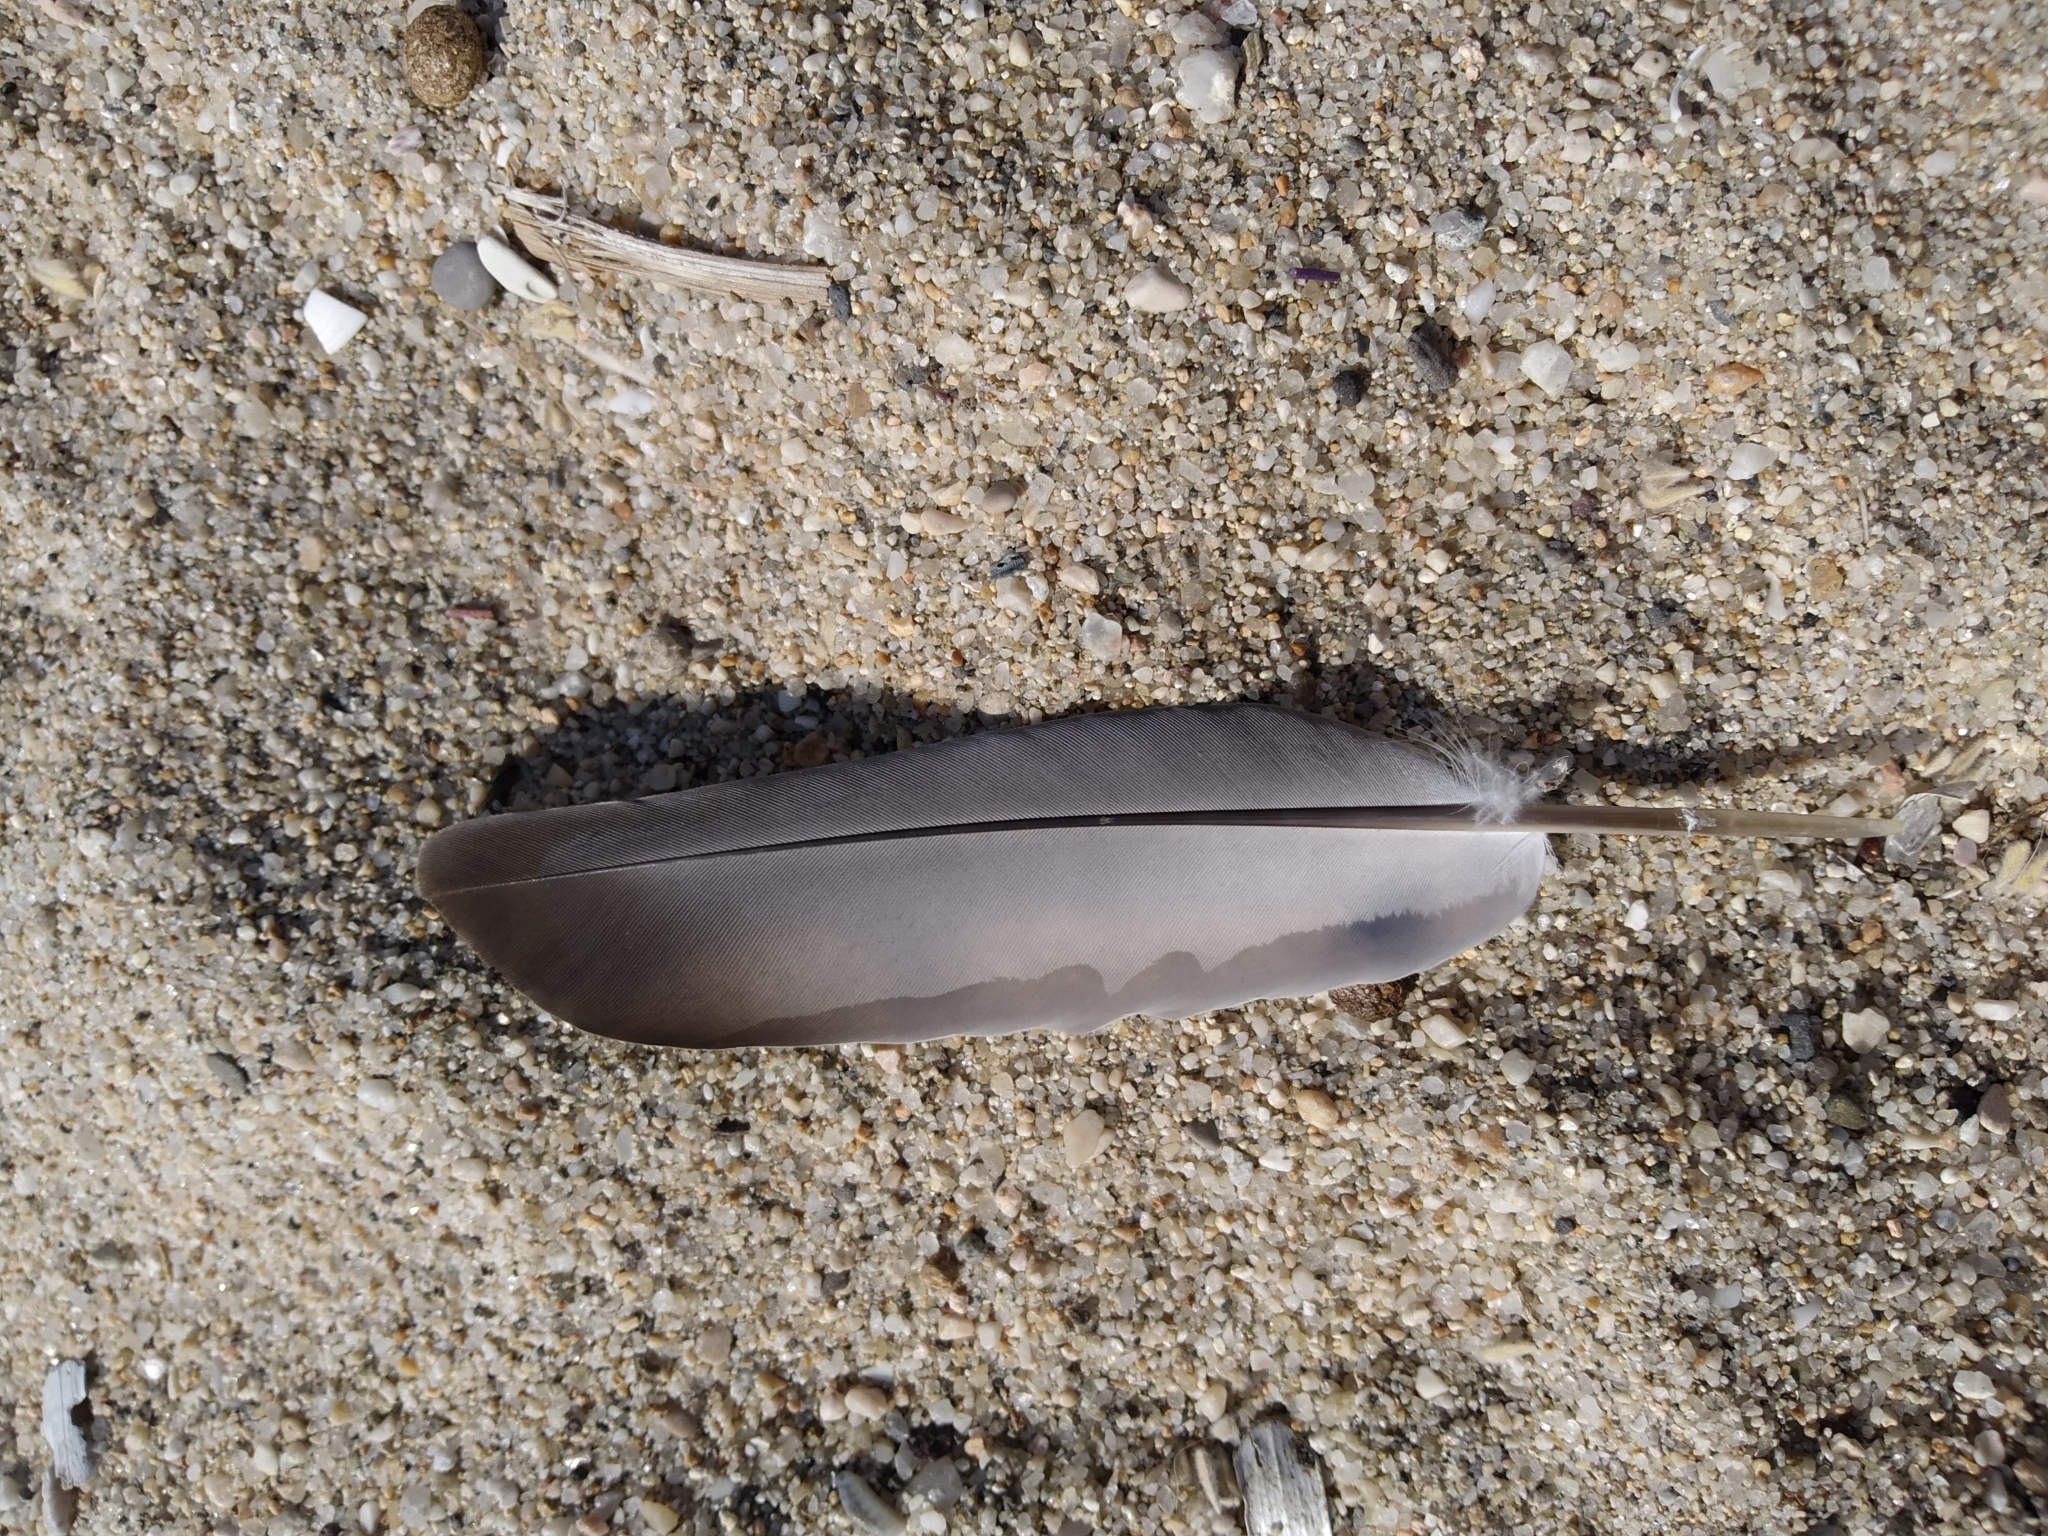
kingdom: Animalia
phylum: Chordata
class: Aves
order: Columbiformes
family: Columbidae
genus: Columba
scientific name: Columba livia
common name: Rock pigeon
